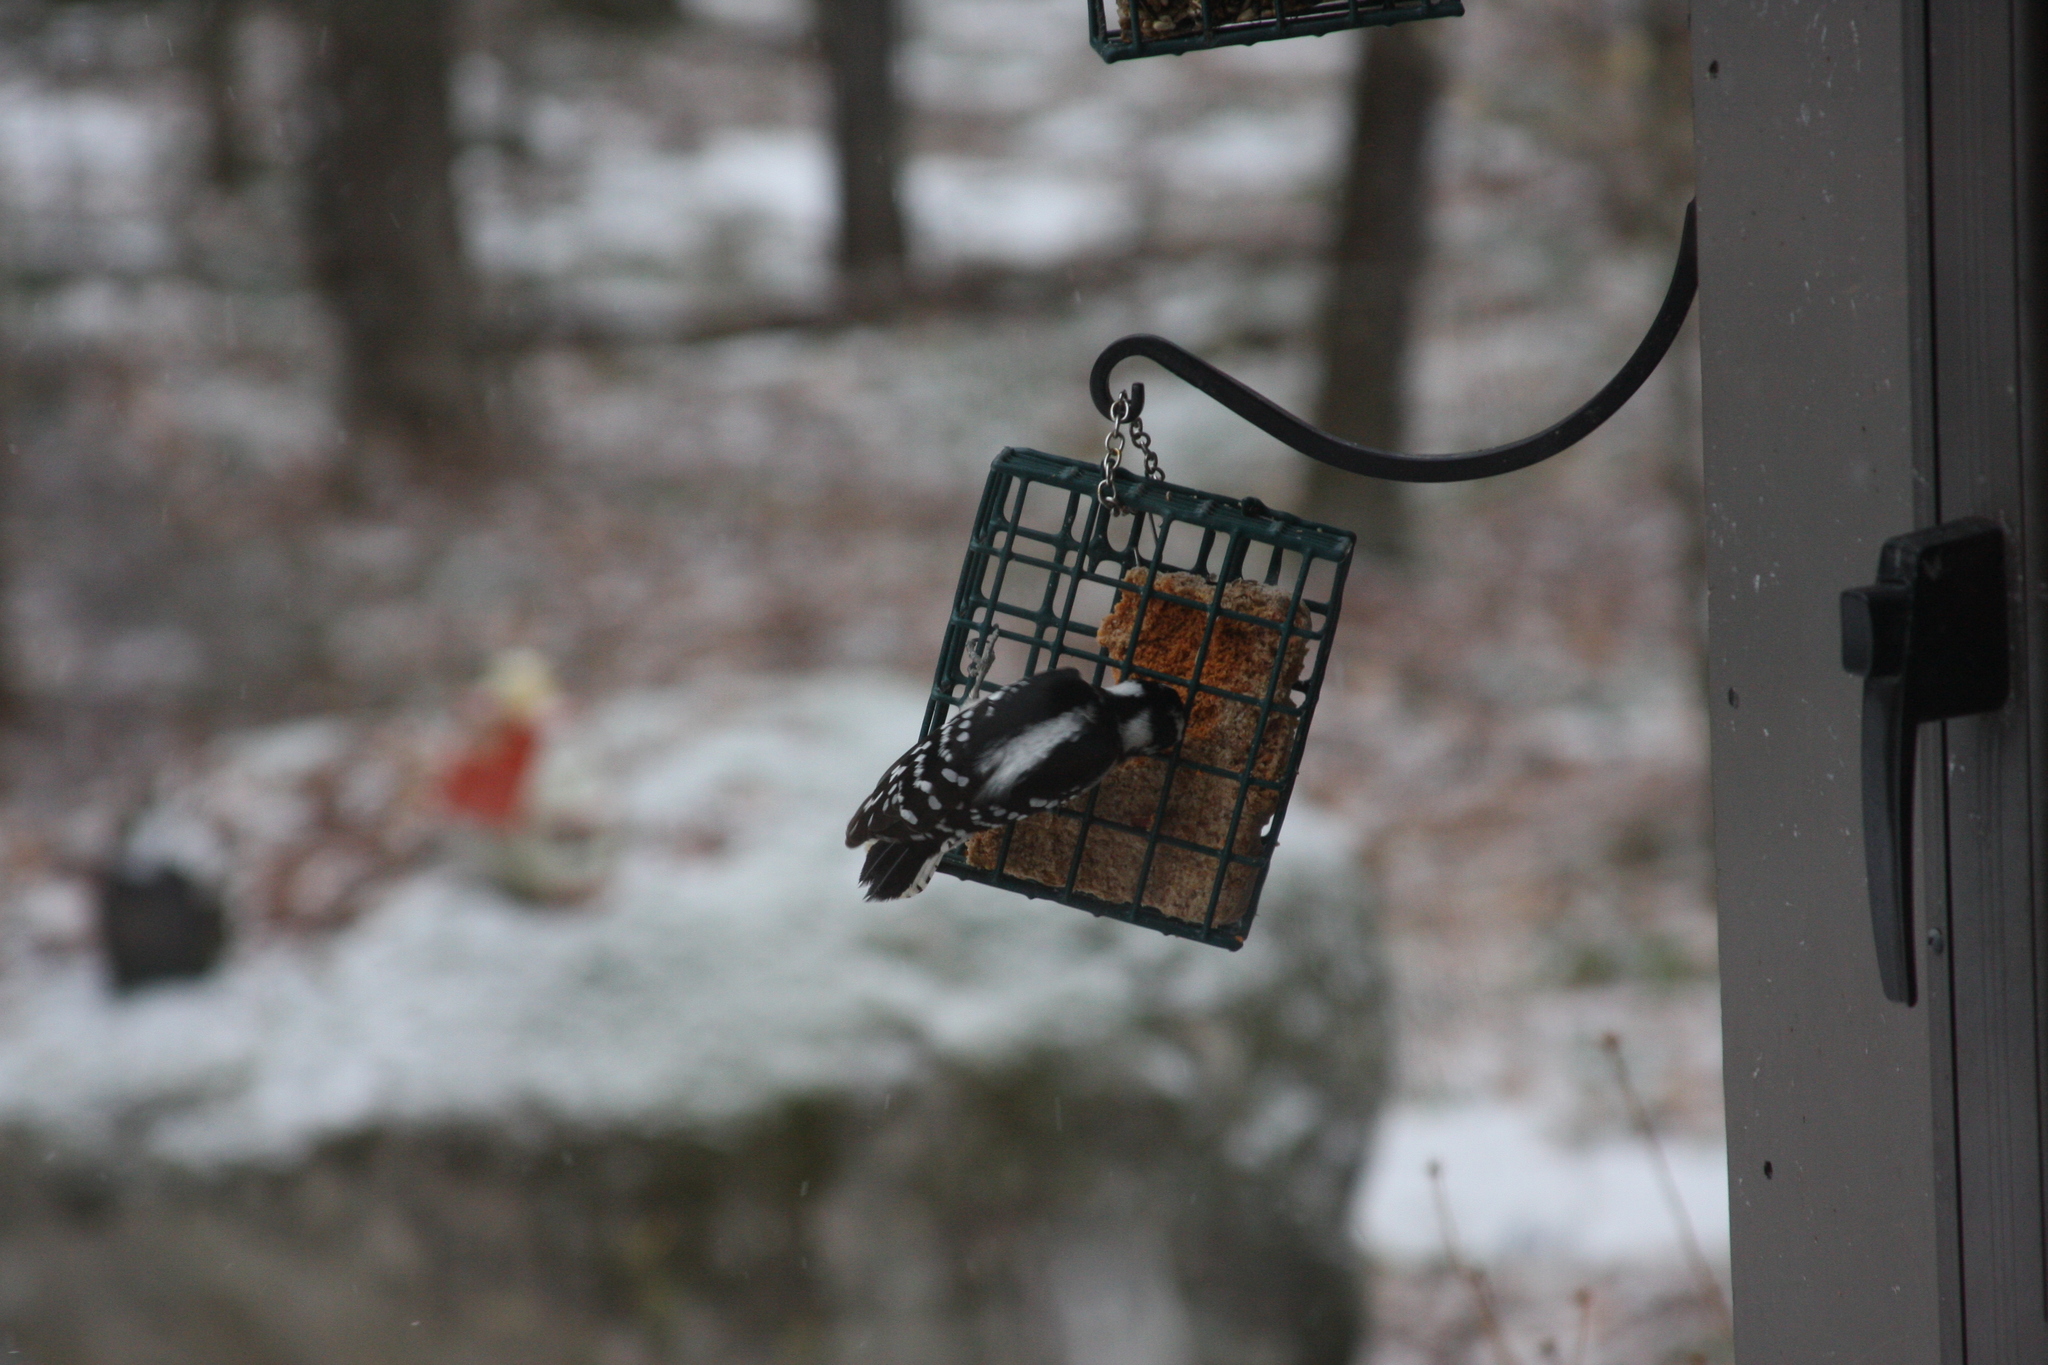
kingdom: Animalia
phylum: Chordata
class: Aves
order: Piciformes
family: Picidae
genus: Dryobates
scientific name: Dryobates pubescens
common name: Downy woodpecker
